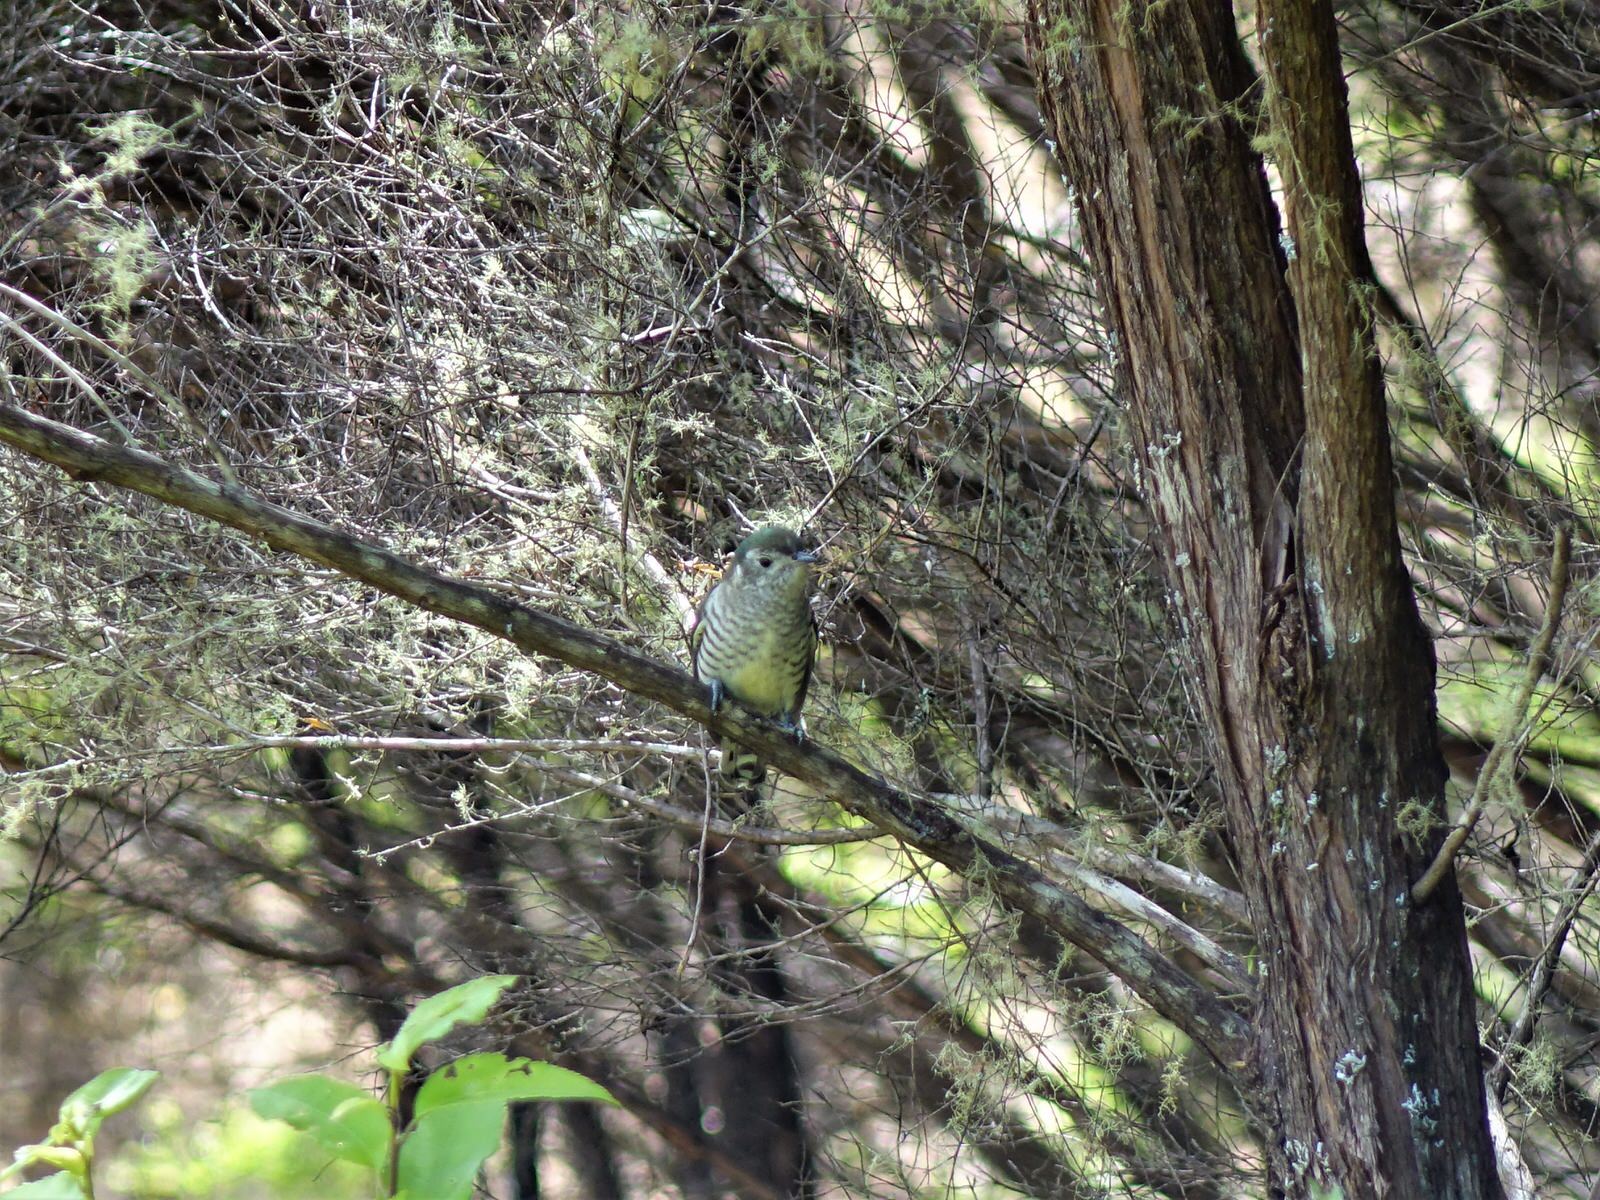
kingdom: Animalia
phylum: Chordata
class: Aves
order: Cuculiformes
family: Cuculidae
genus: Chrysococcyx
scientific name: Chrysococcyx lucidus
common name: Shining bronze cuckoo
